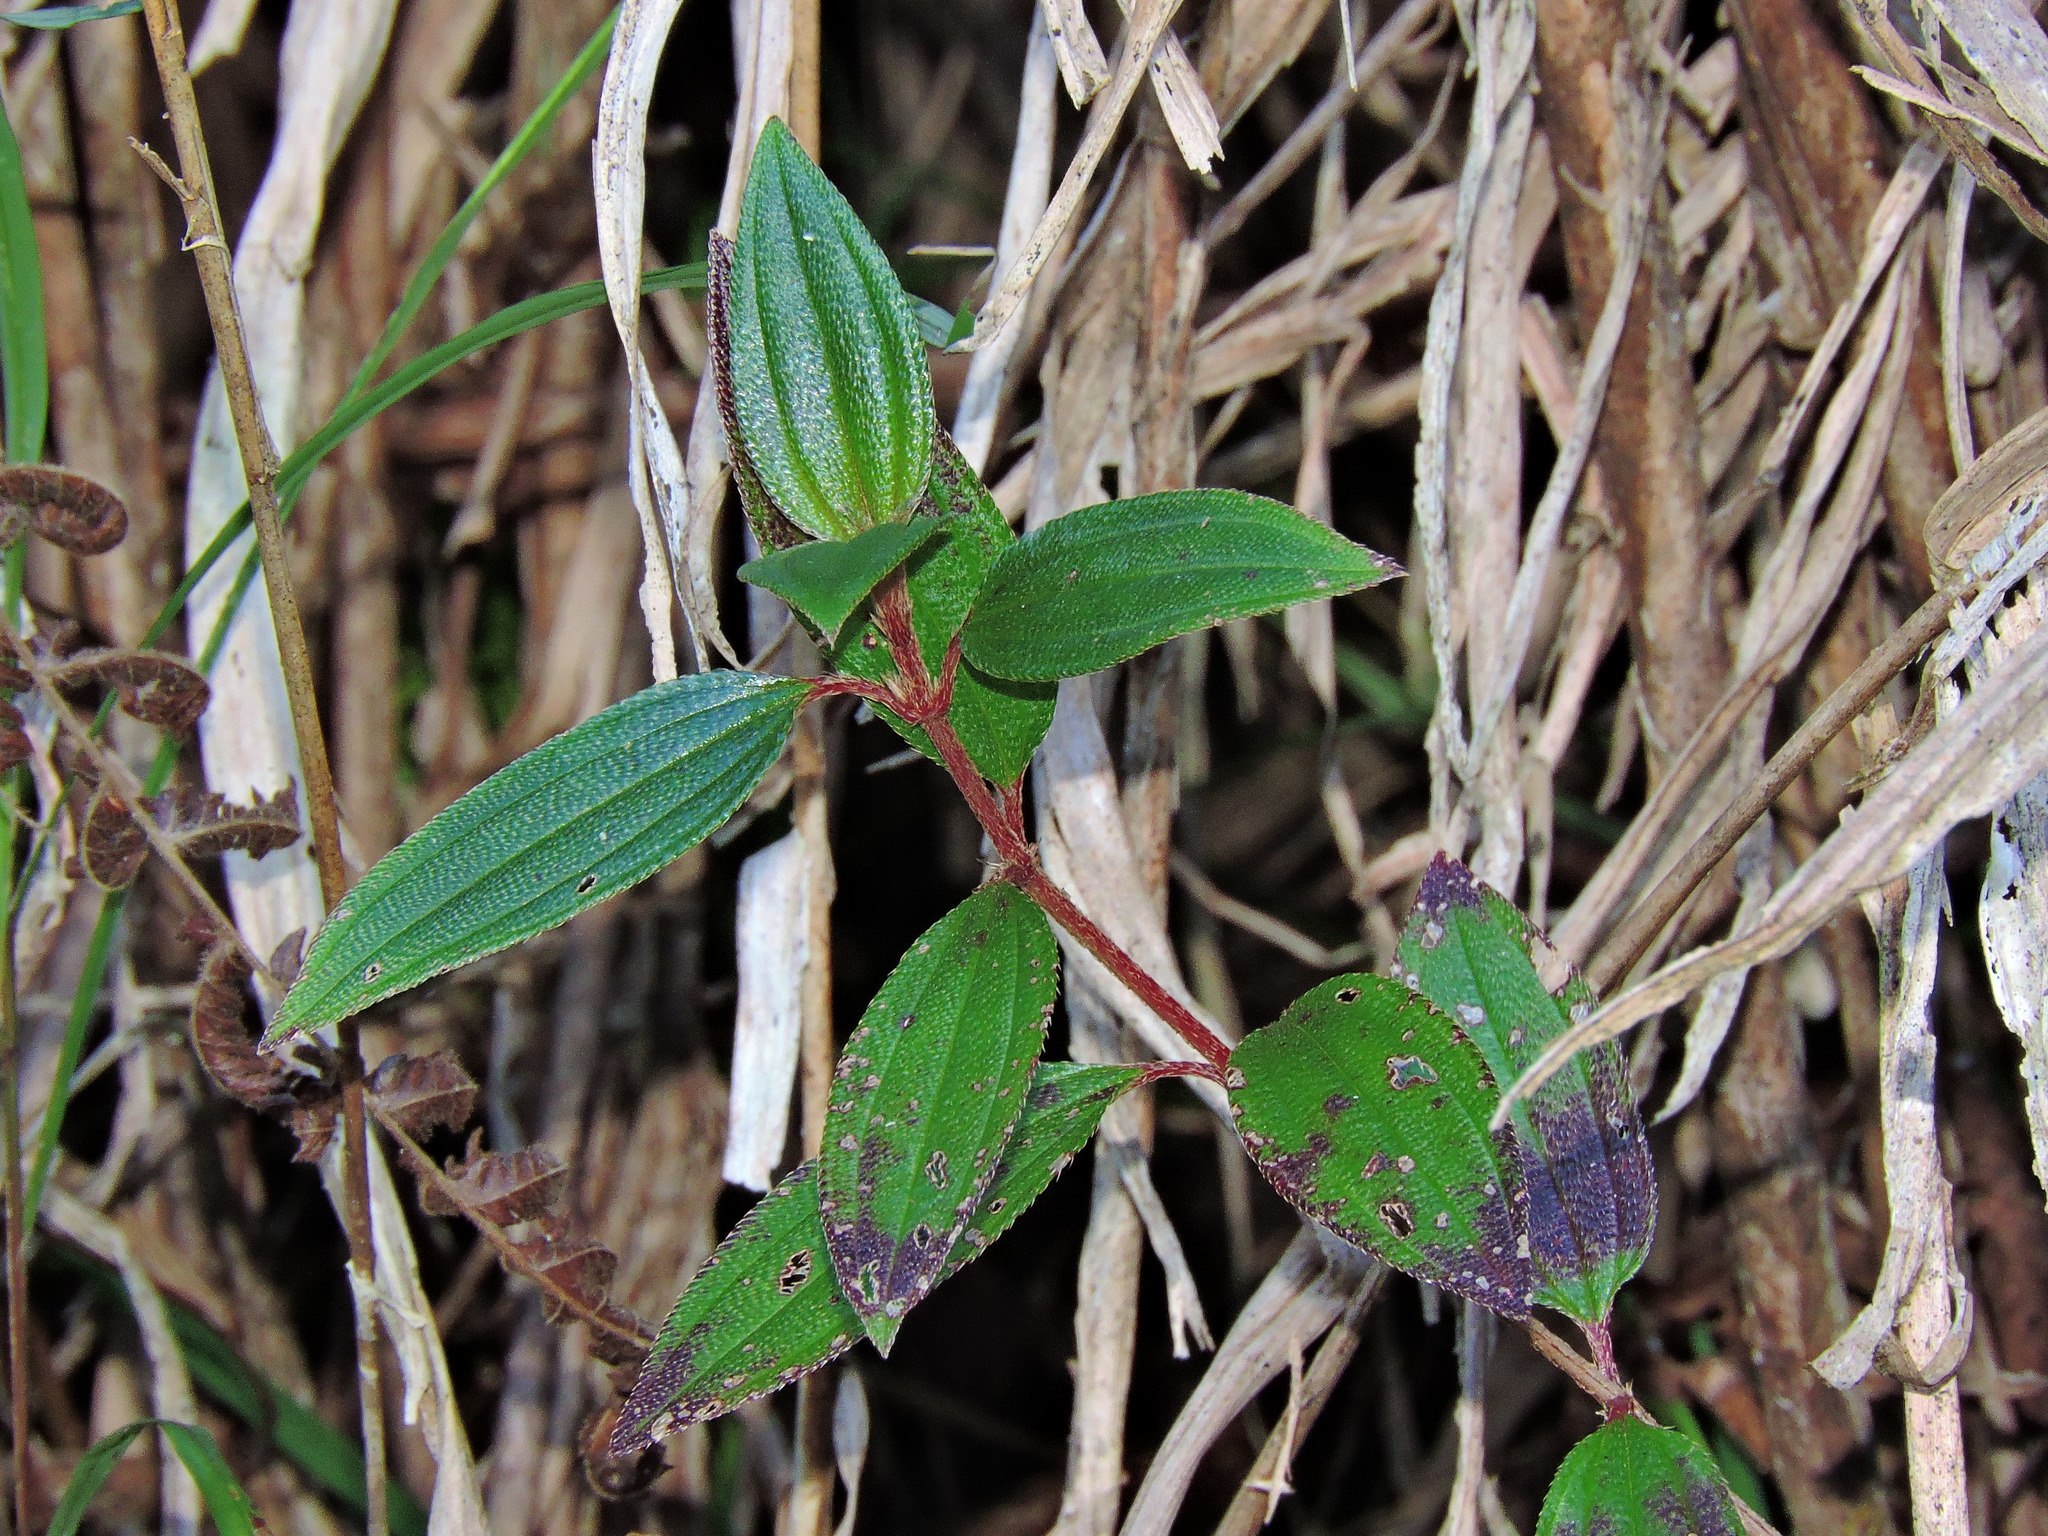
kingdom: Plantae
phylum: Tracheophyta
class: Magnoliopsida
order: Myrtales
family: Melastomataceae
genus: Melastoma
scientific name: Melastoma scaberrima
